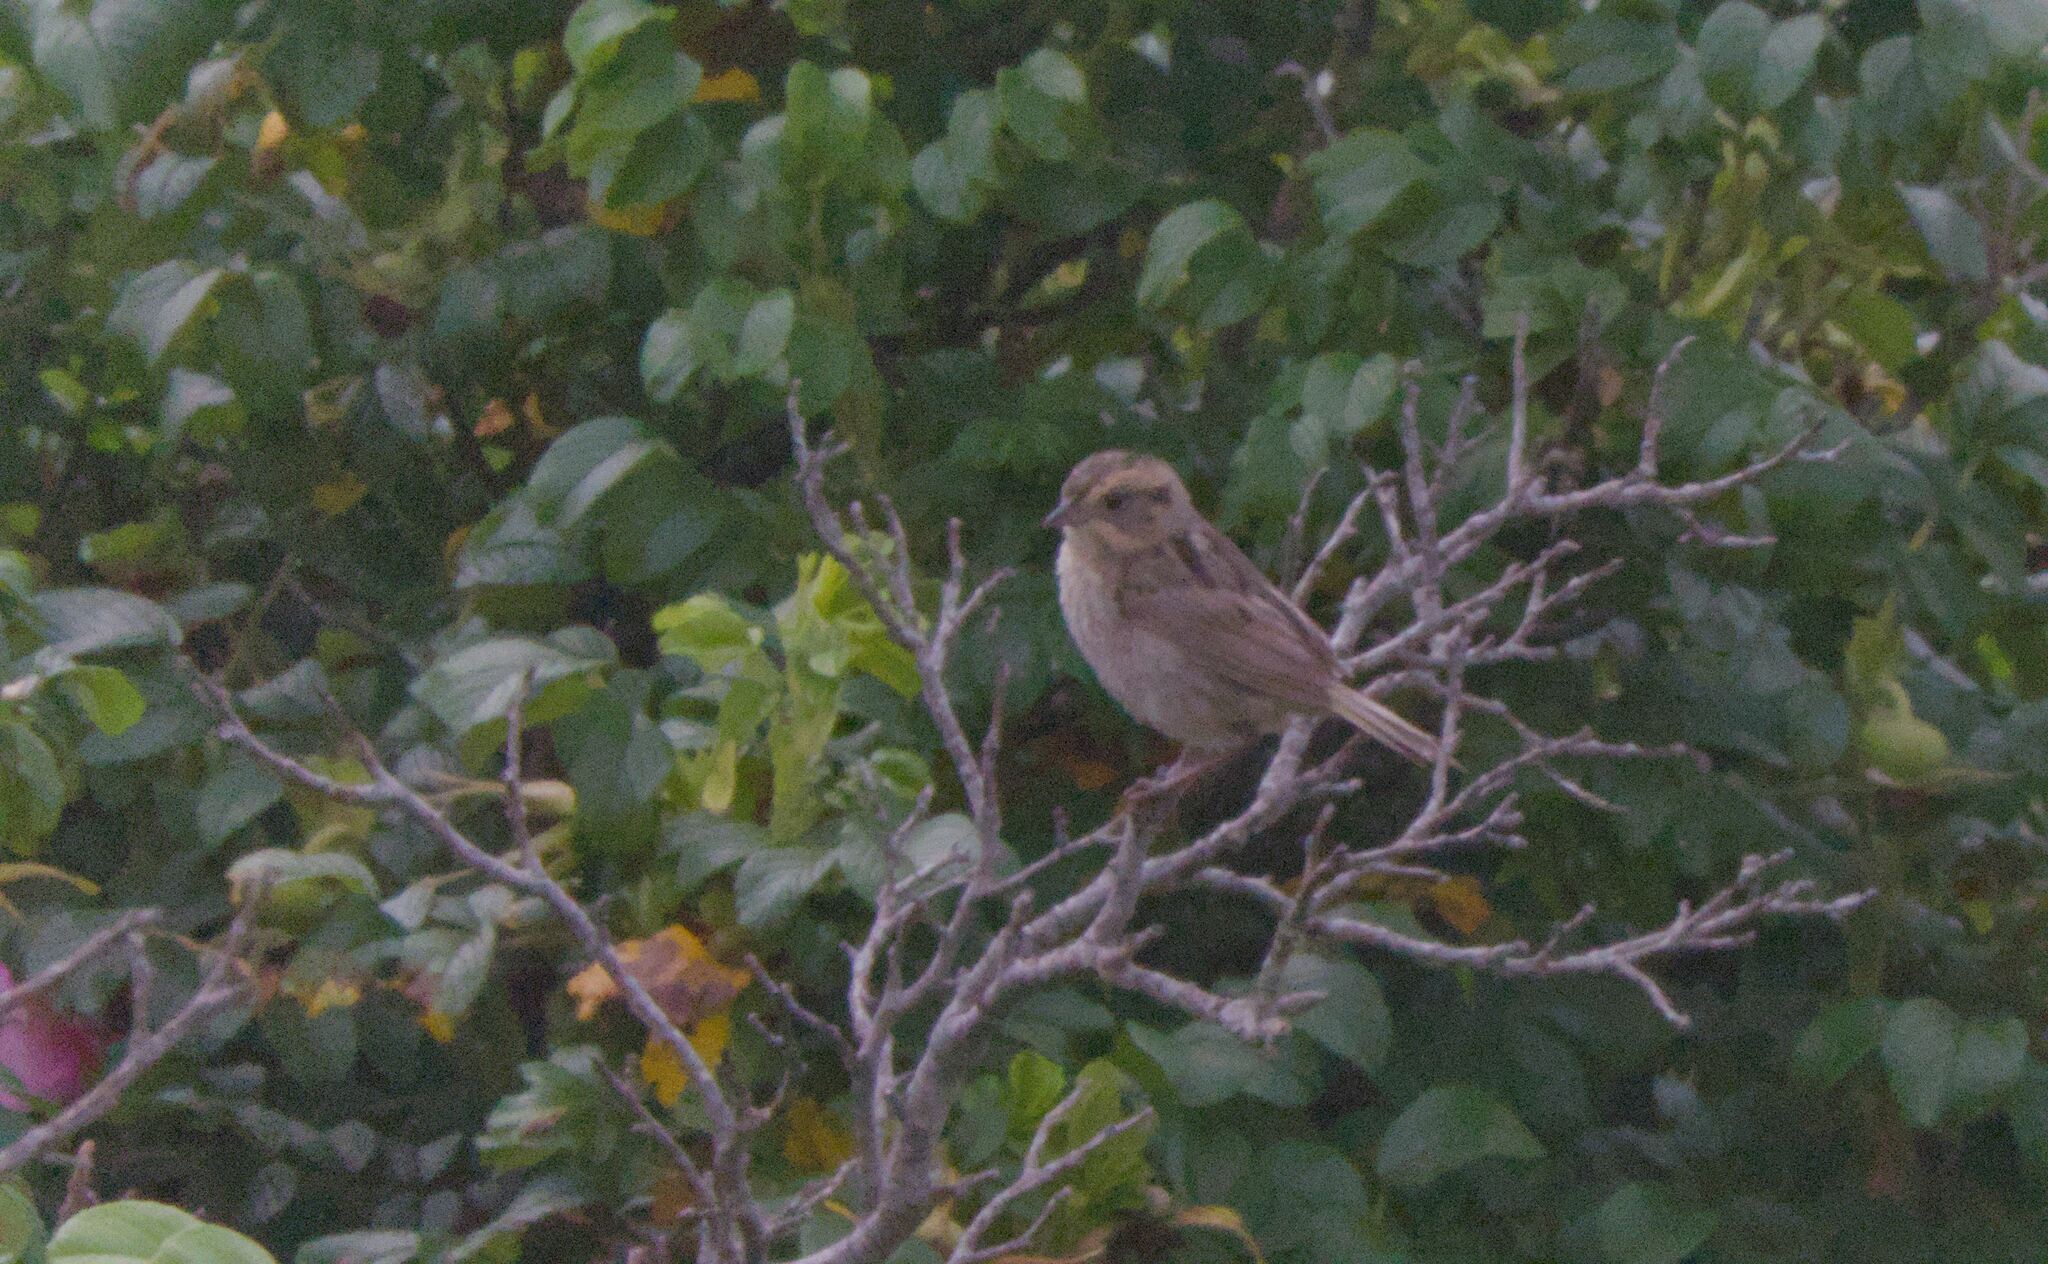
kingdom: Animalia
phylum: Chordata
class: Aves
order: Passeriformes
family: Passerellidae
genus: Ammospiza
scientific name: Ammospiza nelsoni
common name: Nelson's sparrow
